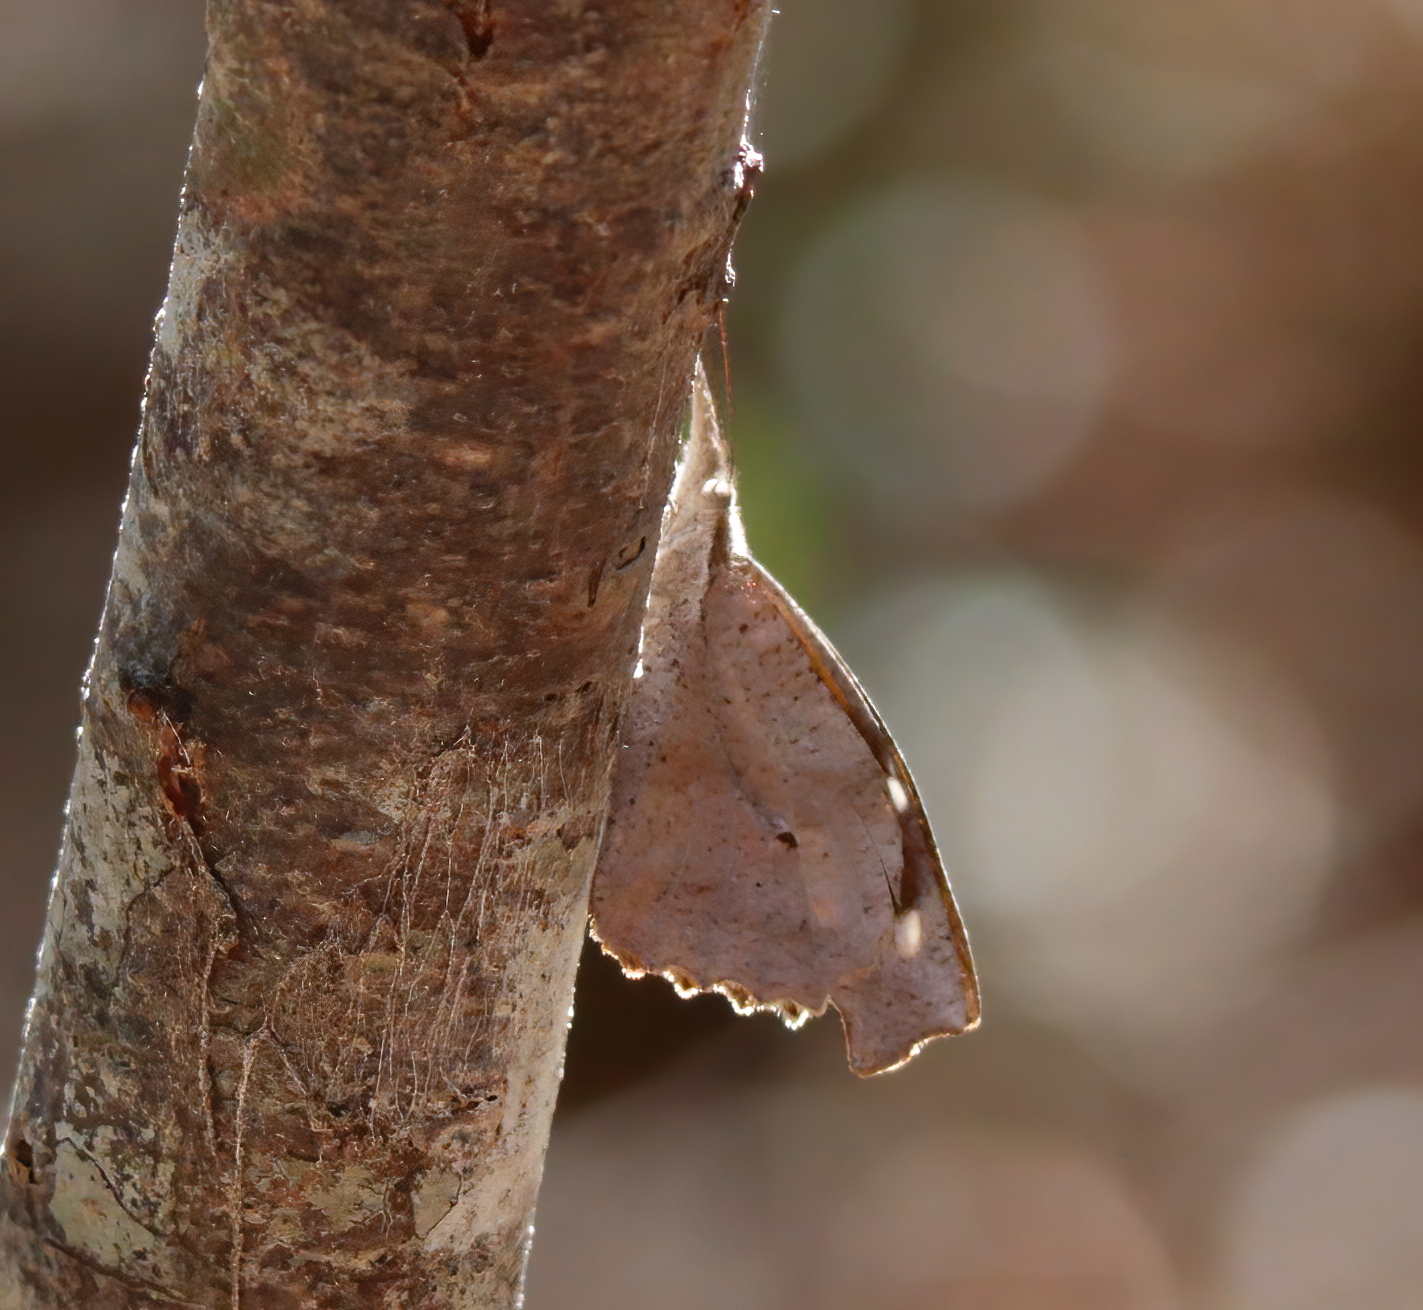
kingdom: Animalia
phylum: Arthropoda
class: Insecta
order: Lepidoptera
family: Nymphalidae
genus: Libytheana
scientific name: Libytheana carinenta
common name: American snout
